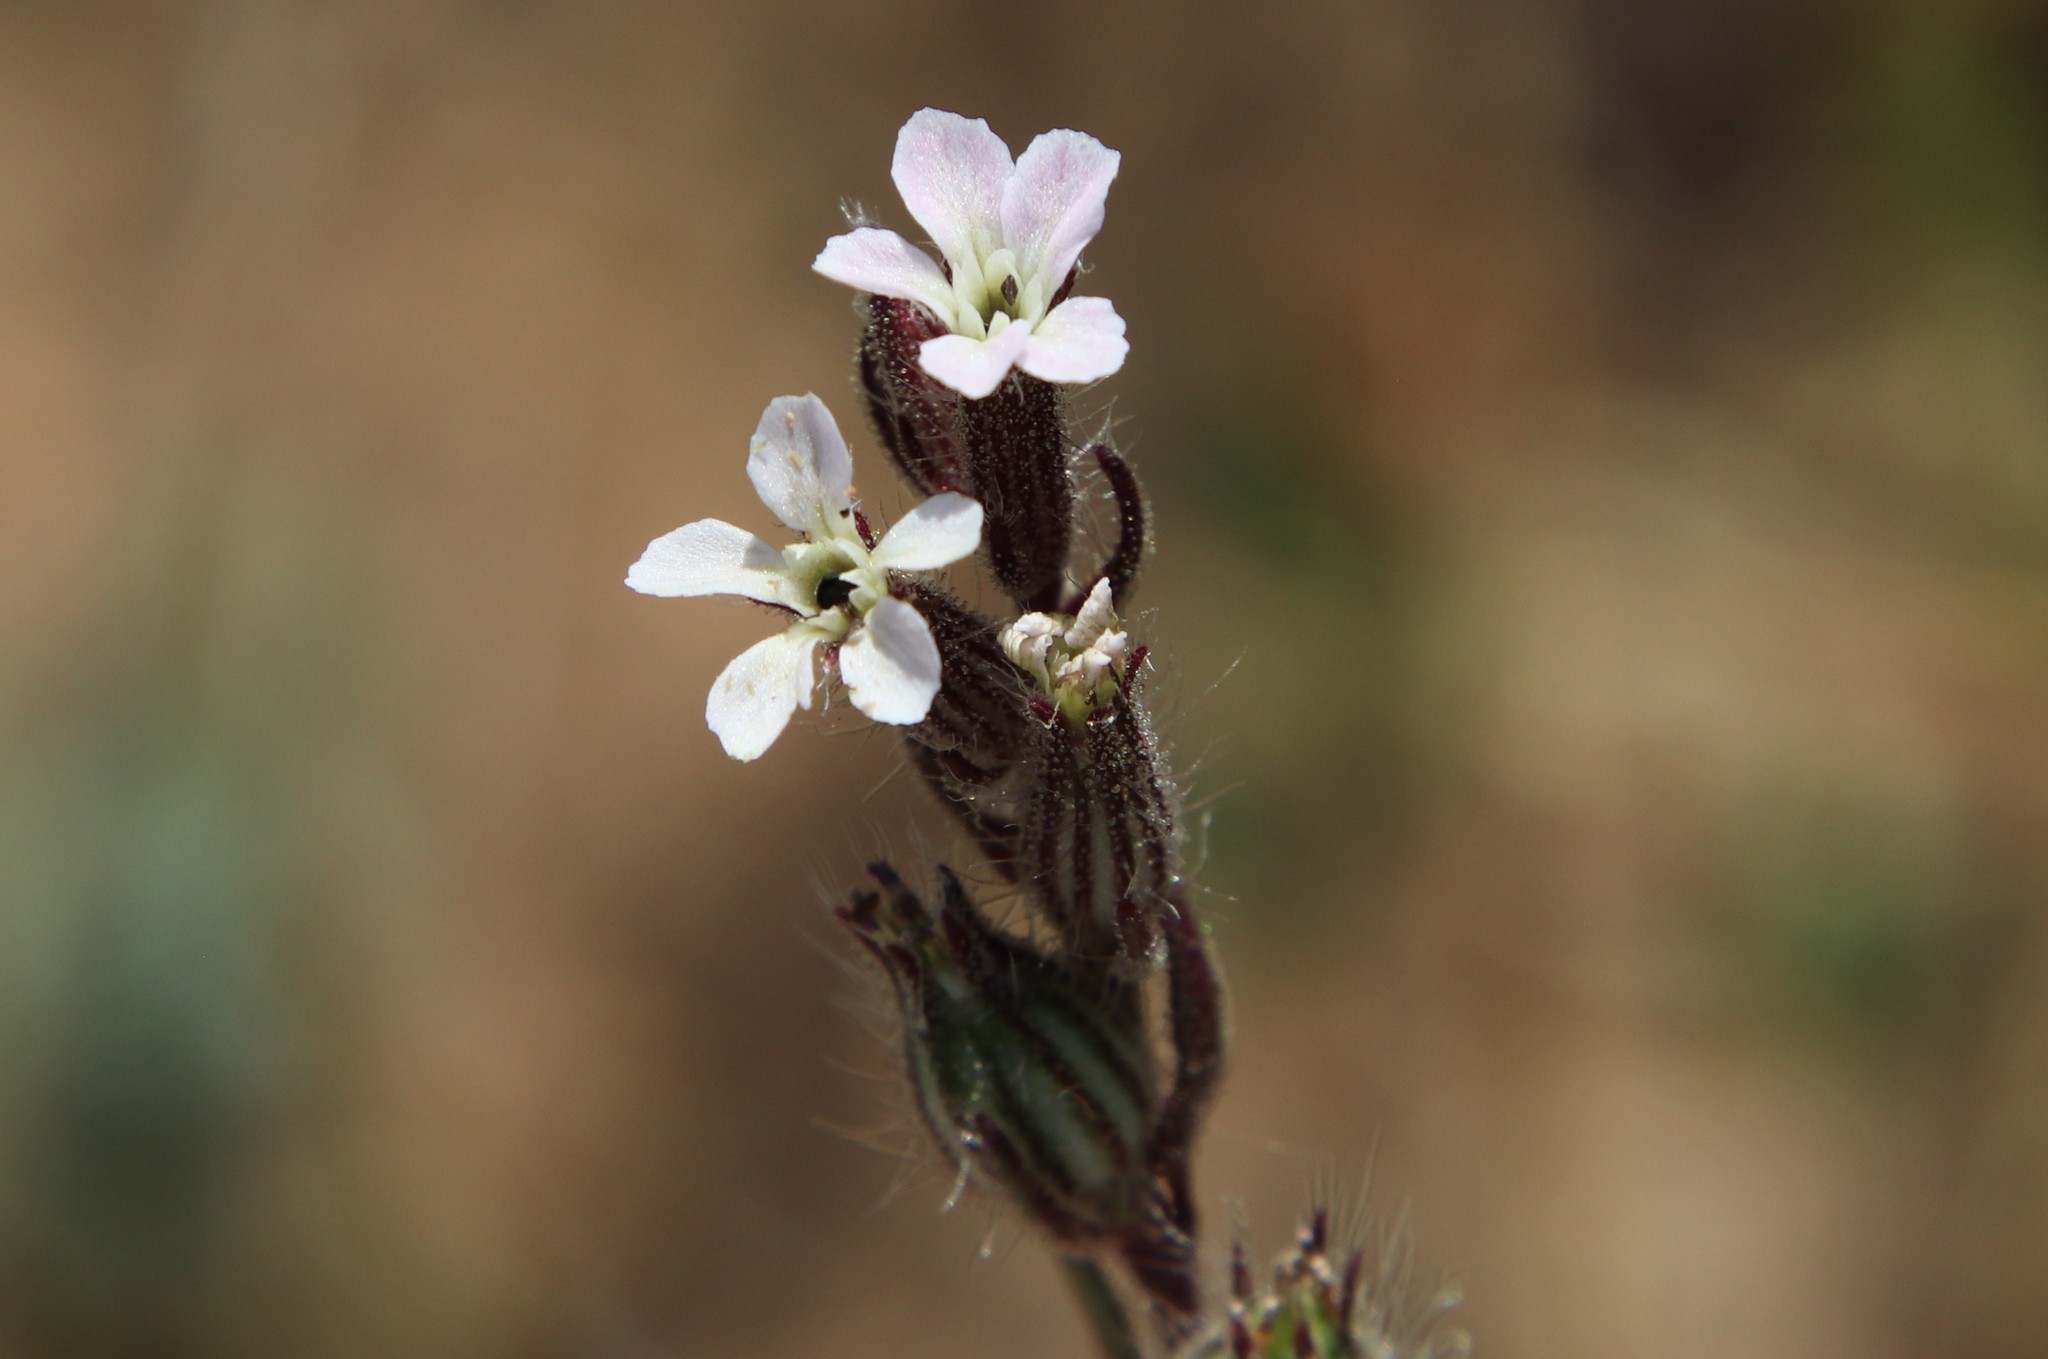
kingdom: Plantae
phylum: Tracheophyta
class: Magnoliopsida
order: Caryophyllales
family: Caryophyllaceae
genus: Silene
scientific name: Silene gallica
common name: Small-flowered catchfly
